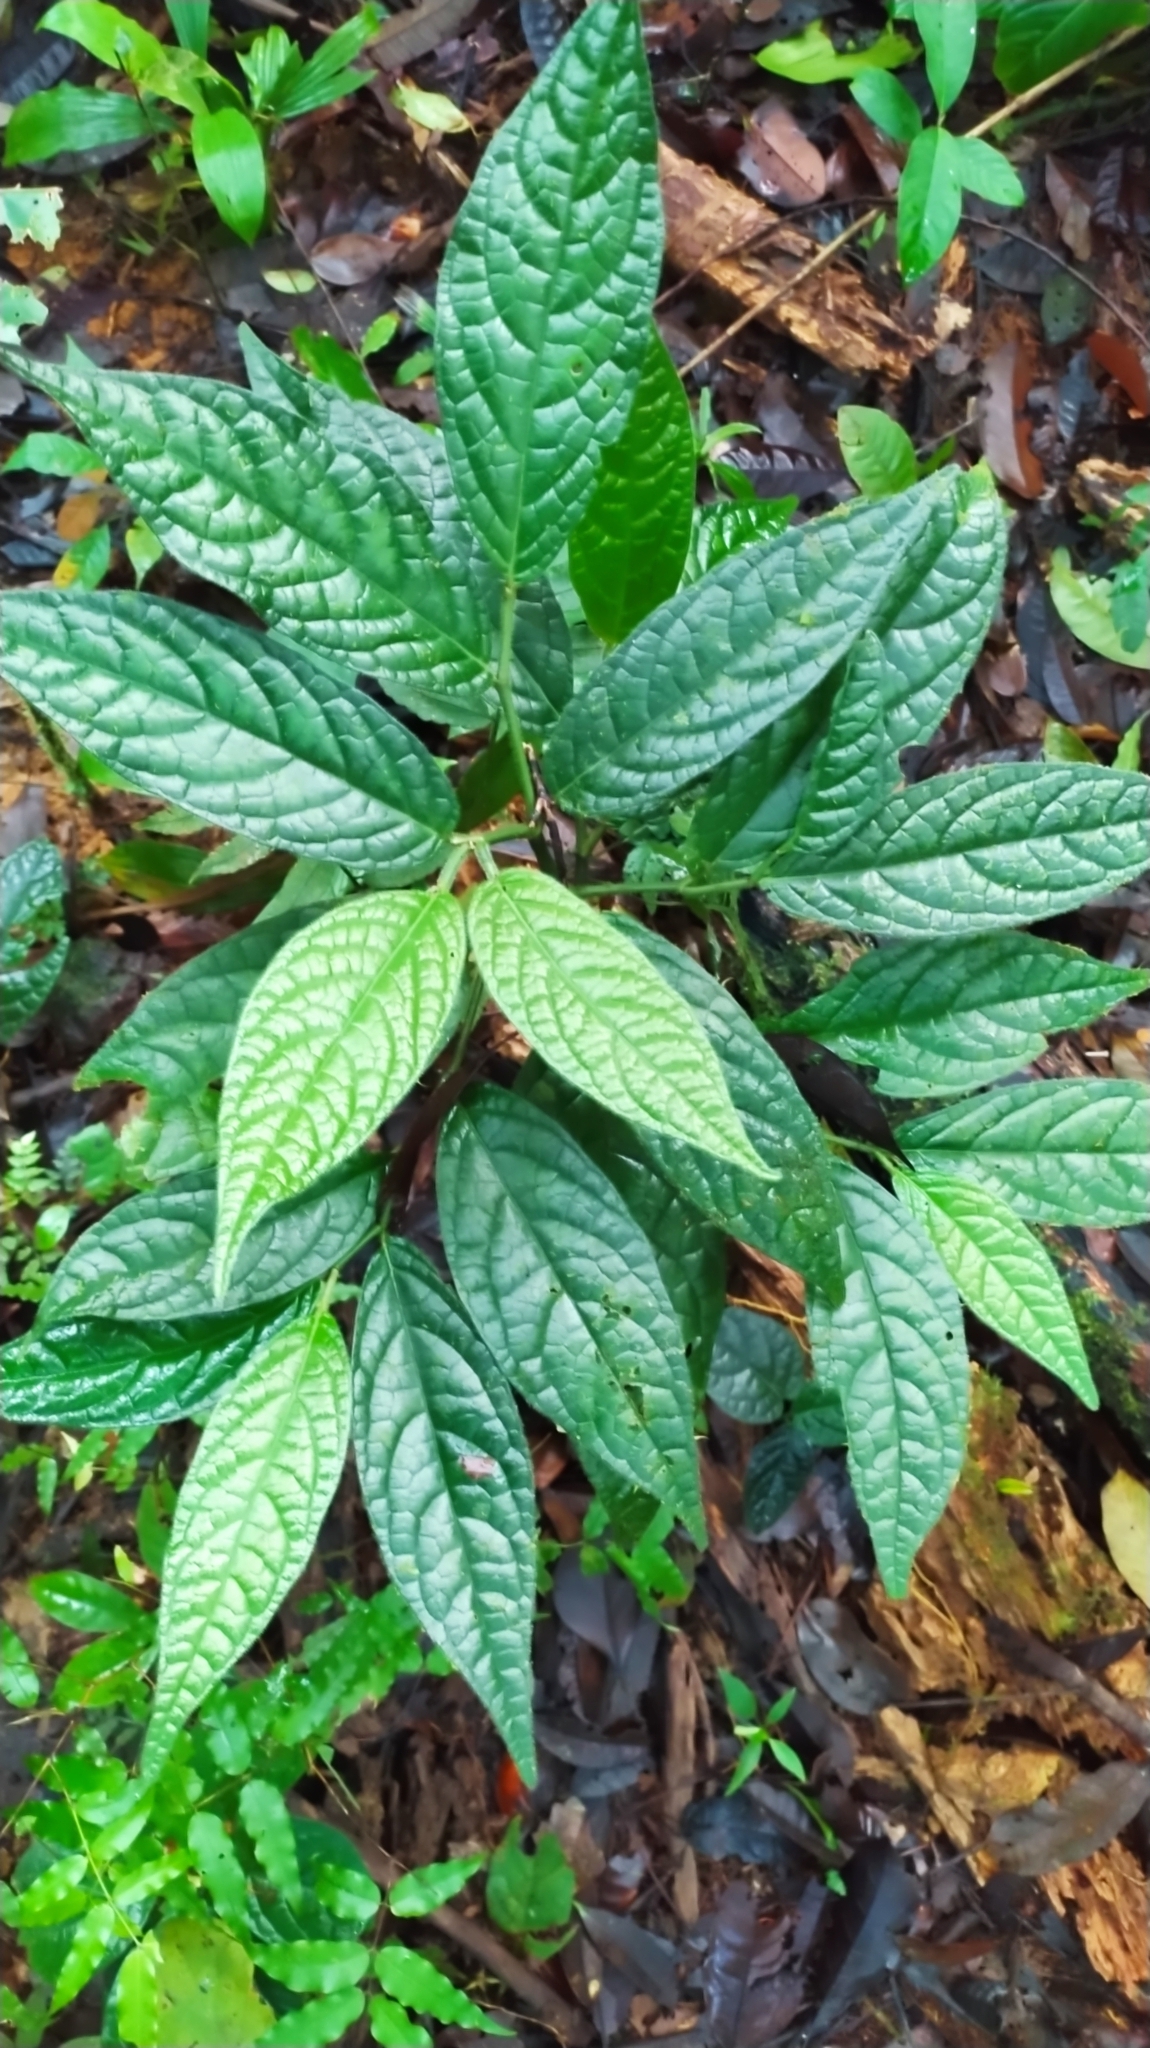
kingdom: Plantae
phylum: Tracheophyta
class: Magnoliopsida
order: Piperales
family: Piperaceae
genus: Piper
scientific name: Piper brownsbergense
